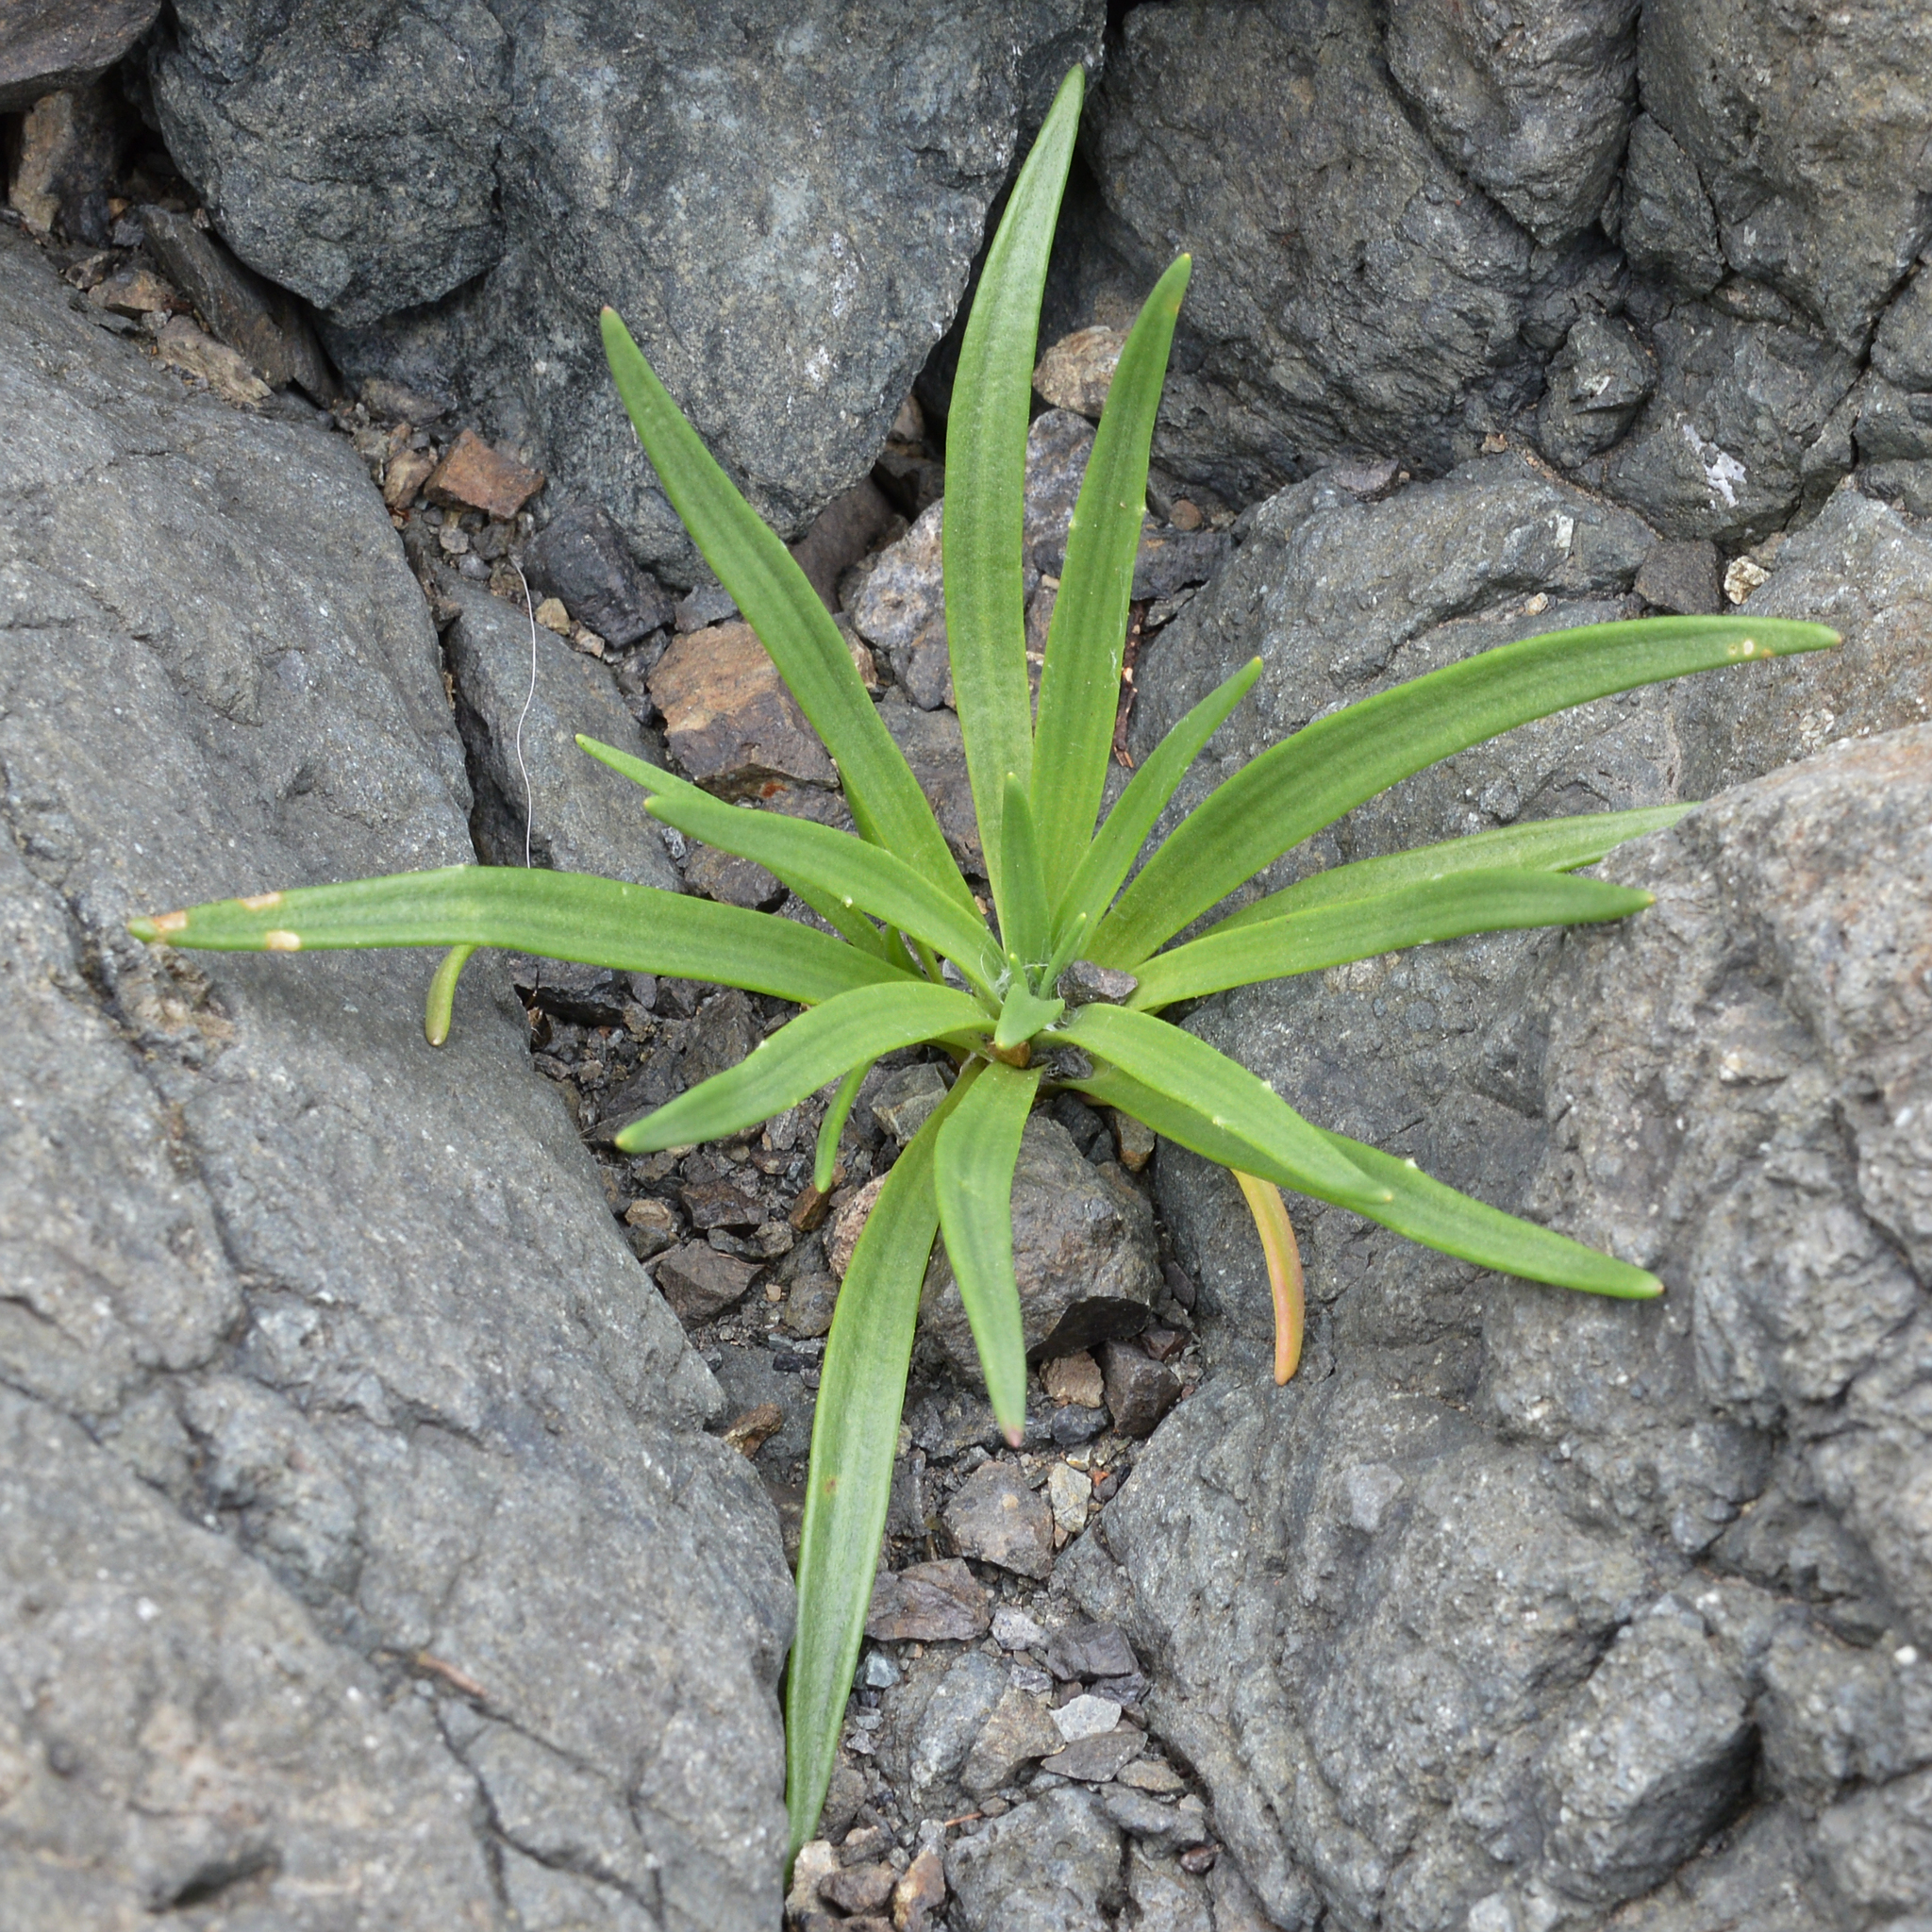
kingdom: Plantae
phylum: Tracheophyta
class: Magnoliopsida
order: Lamiales
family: Plantaginaceae
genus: Plantago
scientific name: Plantago maritima
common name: Sea plantain
